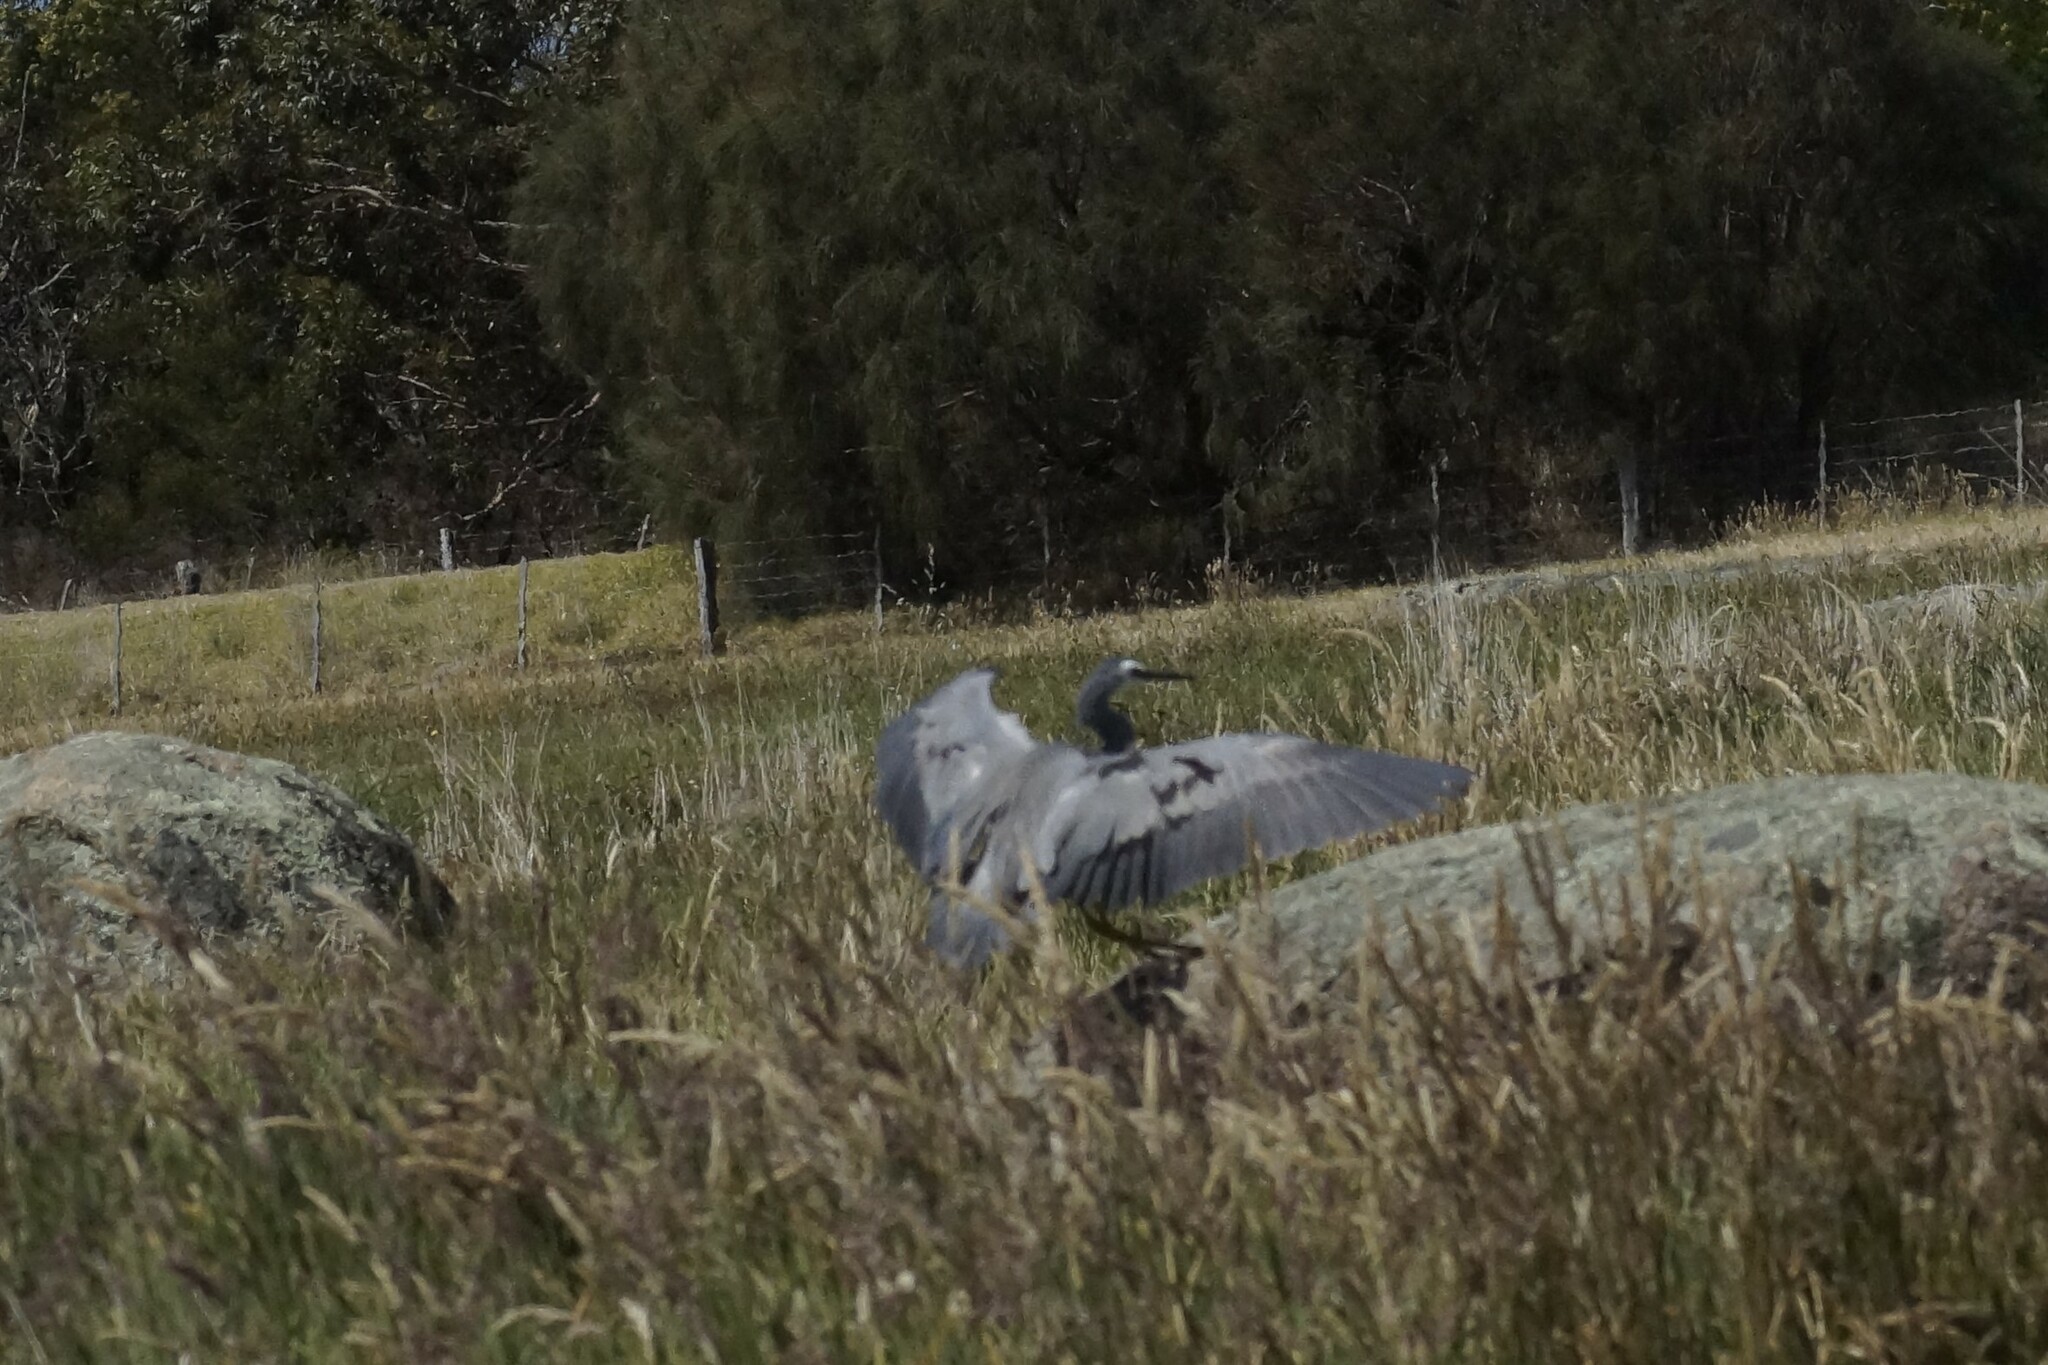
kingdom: Animalia
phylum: Chordata
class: Aves
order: Pelecaniformes
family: Ardeidae
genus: Egretta
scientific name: Egretta novaehollandiae
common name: White-faced heron
